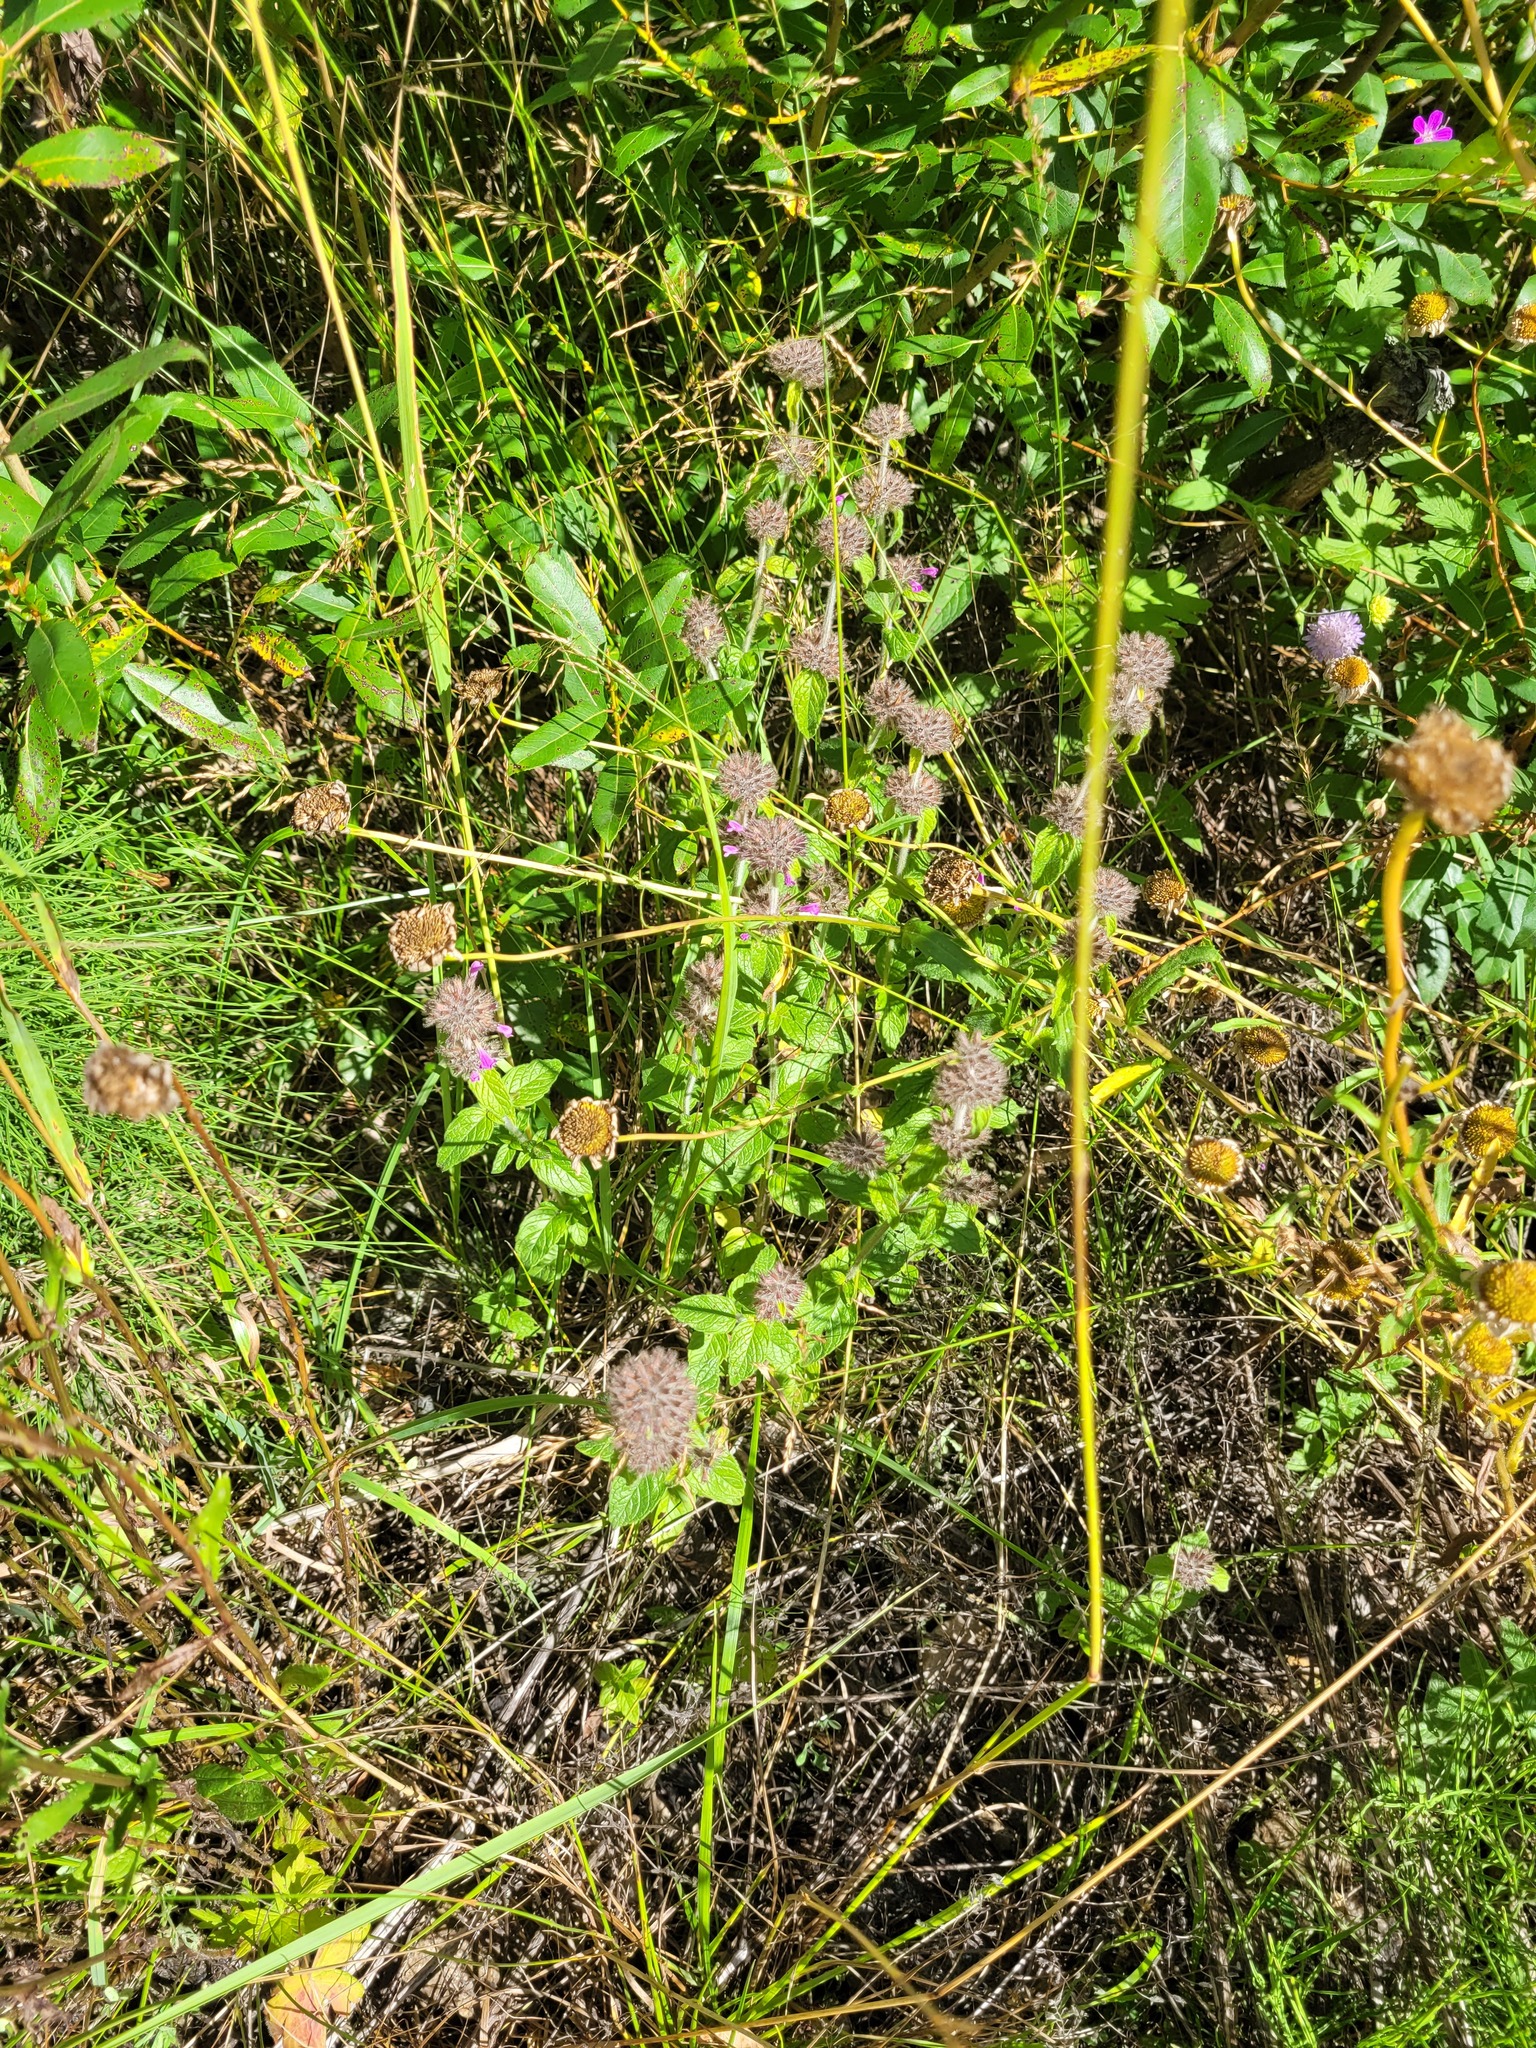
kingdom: Plantae
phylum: Tracheophyta
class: Magnoliopsida
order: Lamiales
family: Lamiaceae
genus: Clinopodium
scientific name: Clinopodium vulgare
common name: Wild basil
